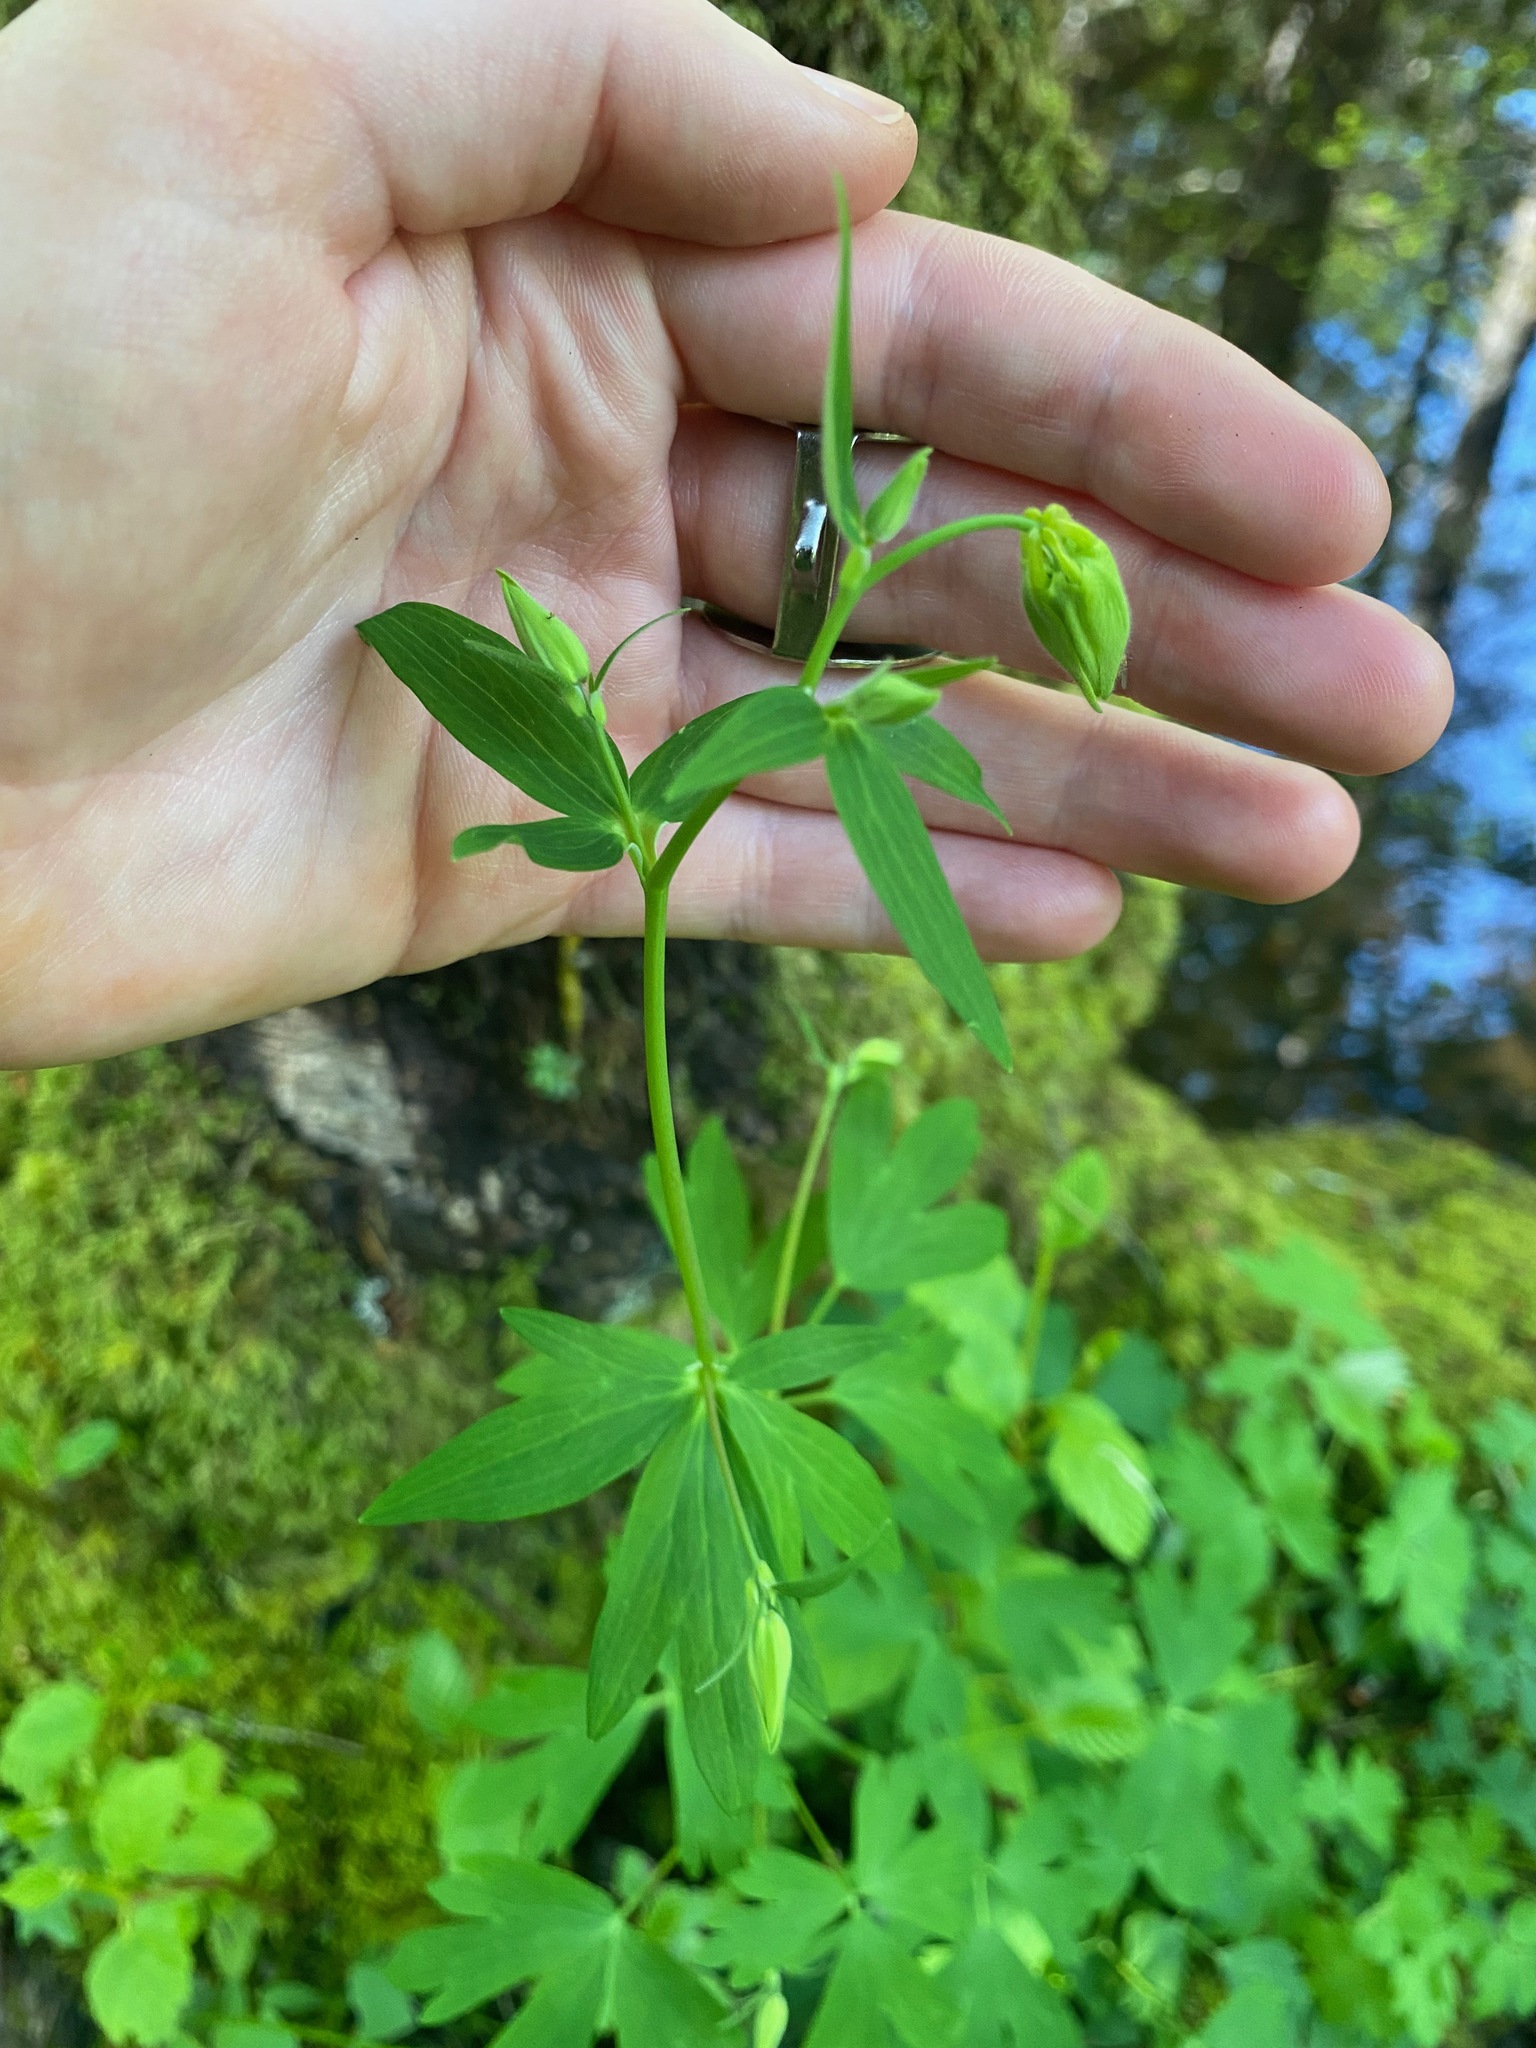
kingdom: Plantae
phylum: Tracheophyta
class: Magnoliopsida
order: Ranunculales
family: Ranunculaceae
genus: Aquilegia
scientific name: Aquilegia formosa
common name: Sitka columbine
